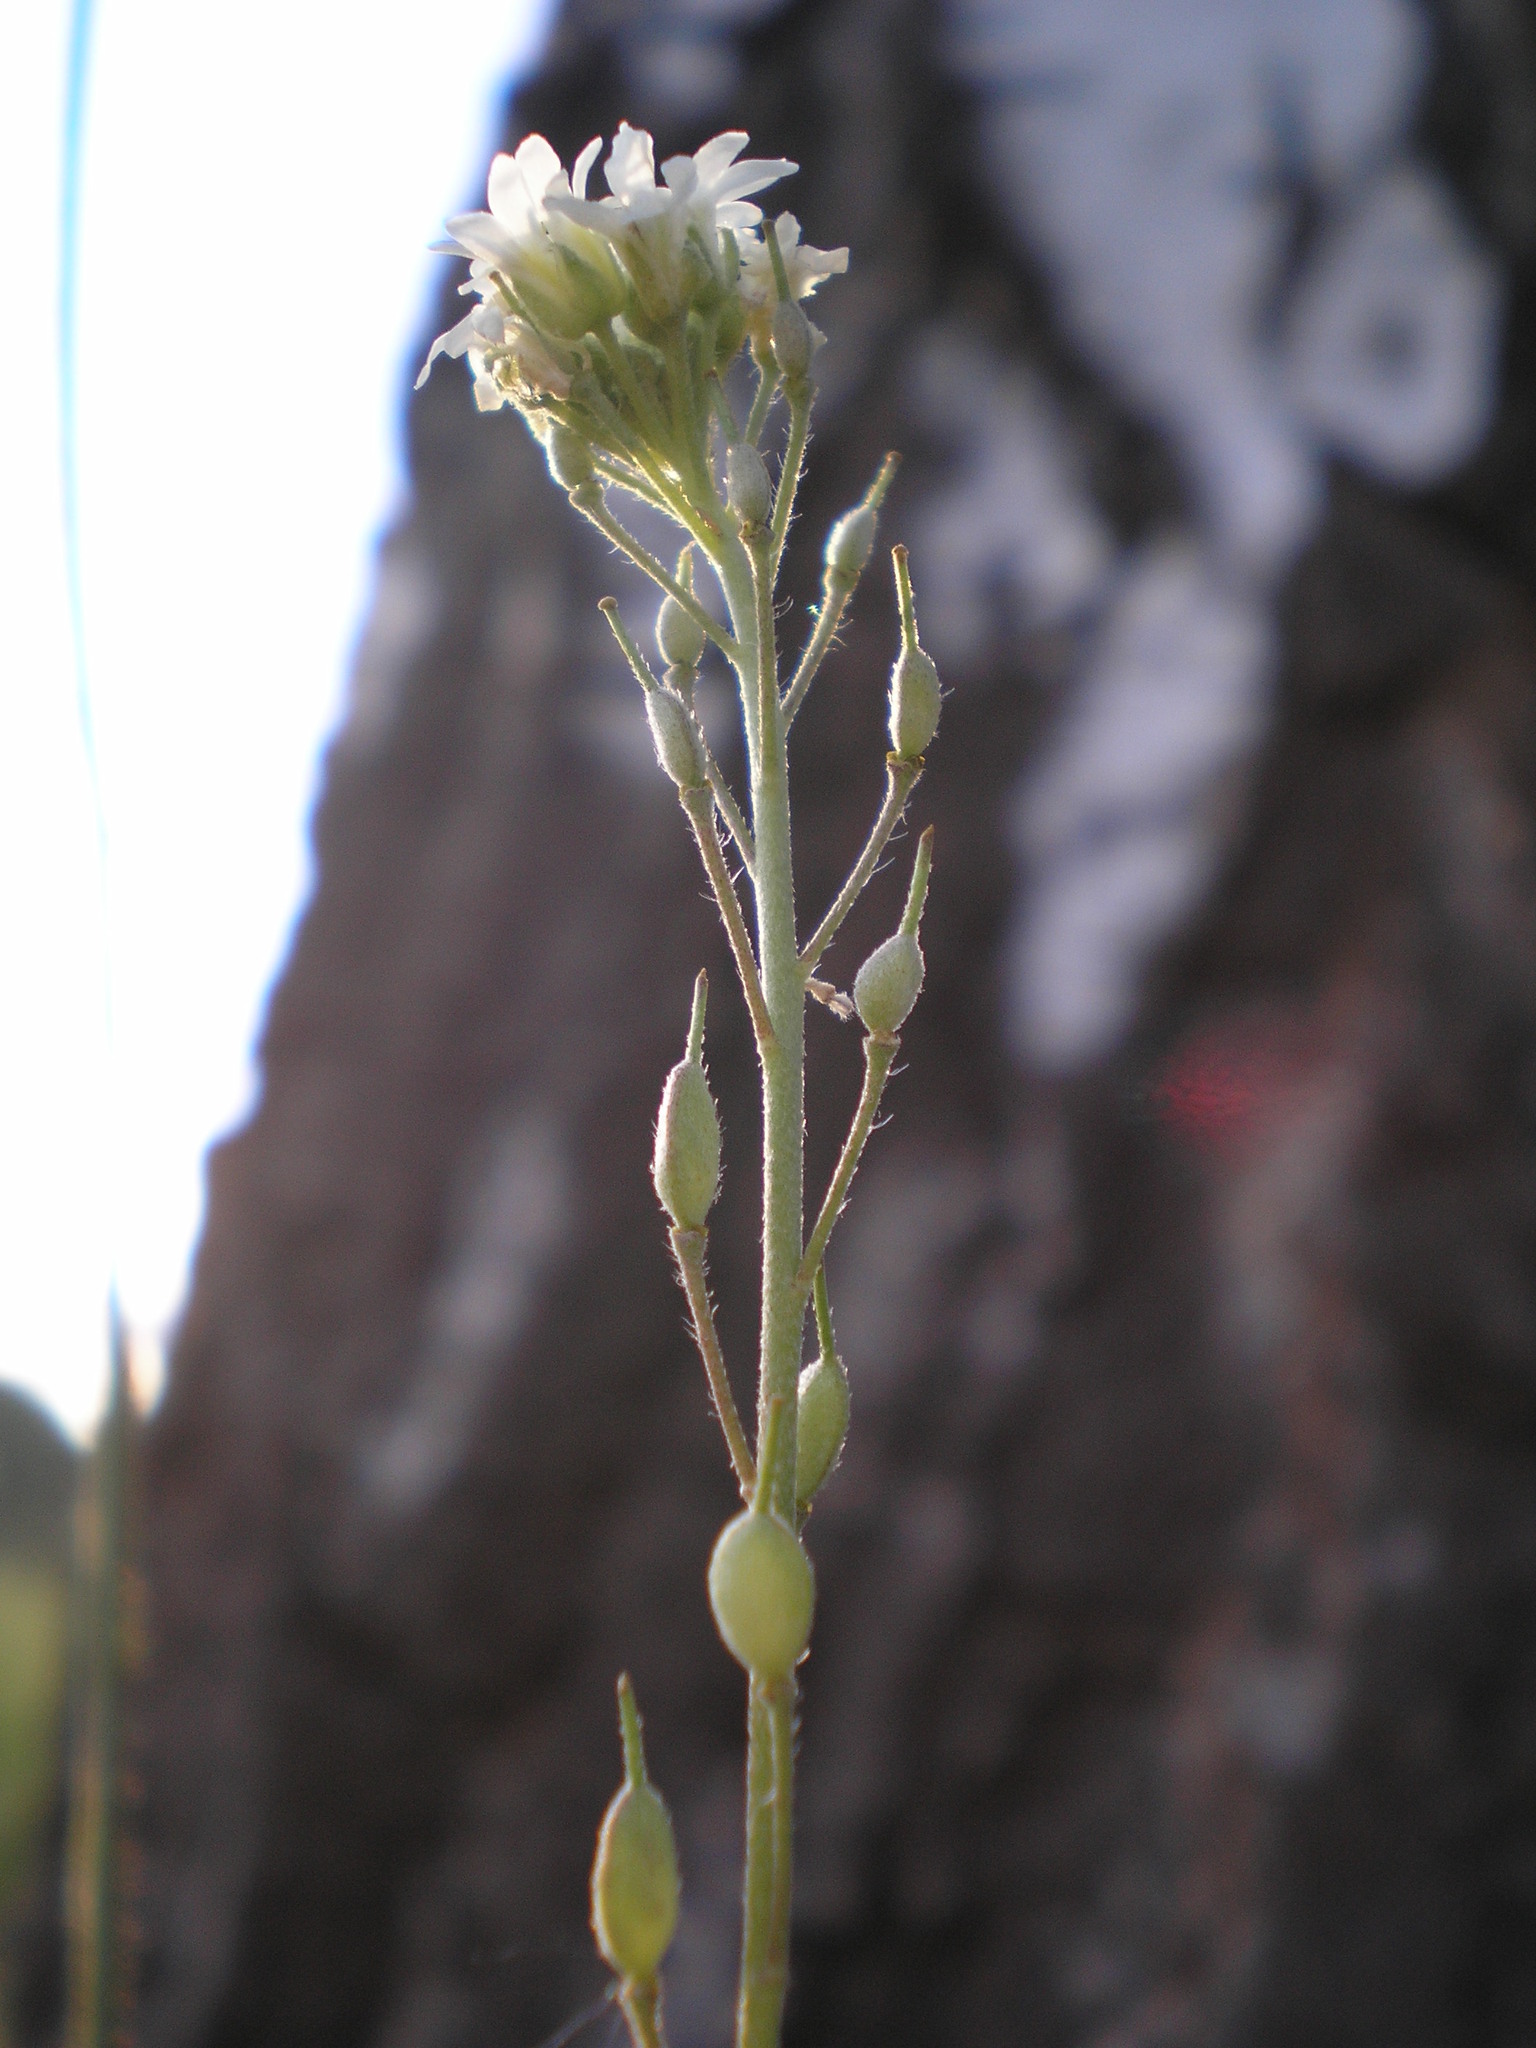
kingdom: Plantae
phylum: Tracheophyta
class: Magnoliopsida
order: Brassicales
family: Brassicaceae
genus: Berteroa
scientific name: Berteroa incana
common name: Hoary alison
